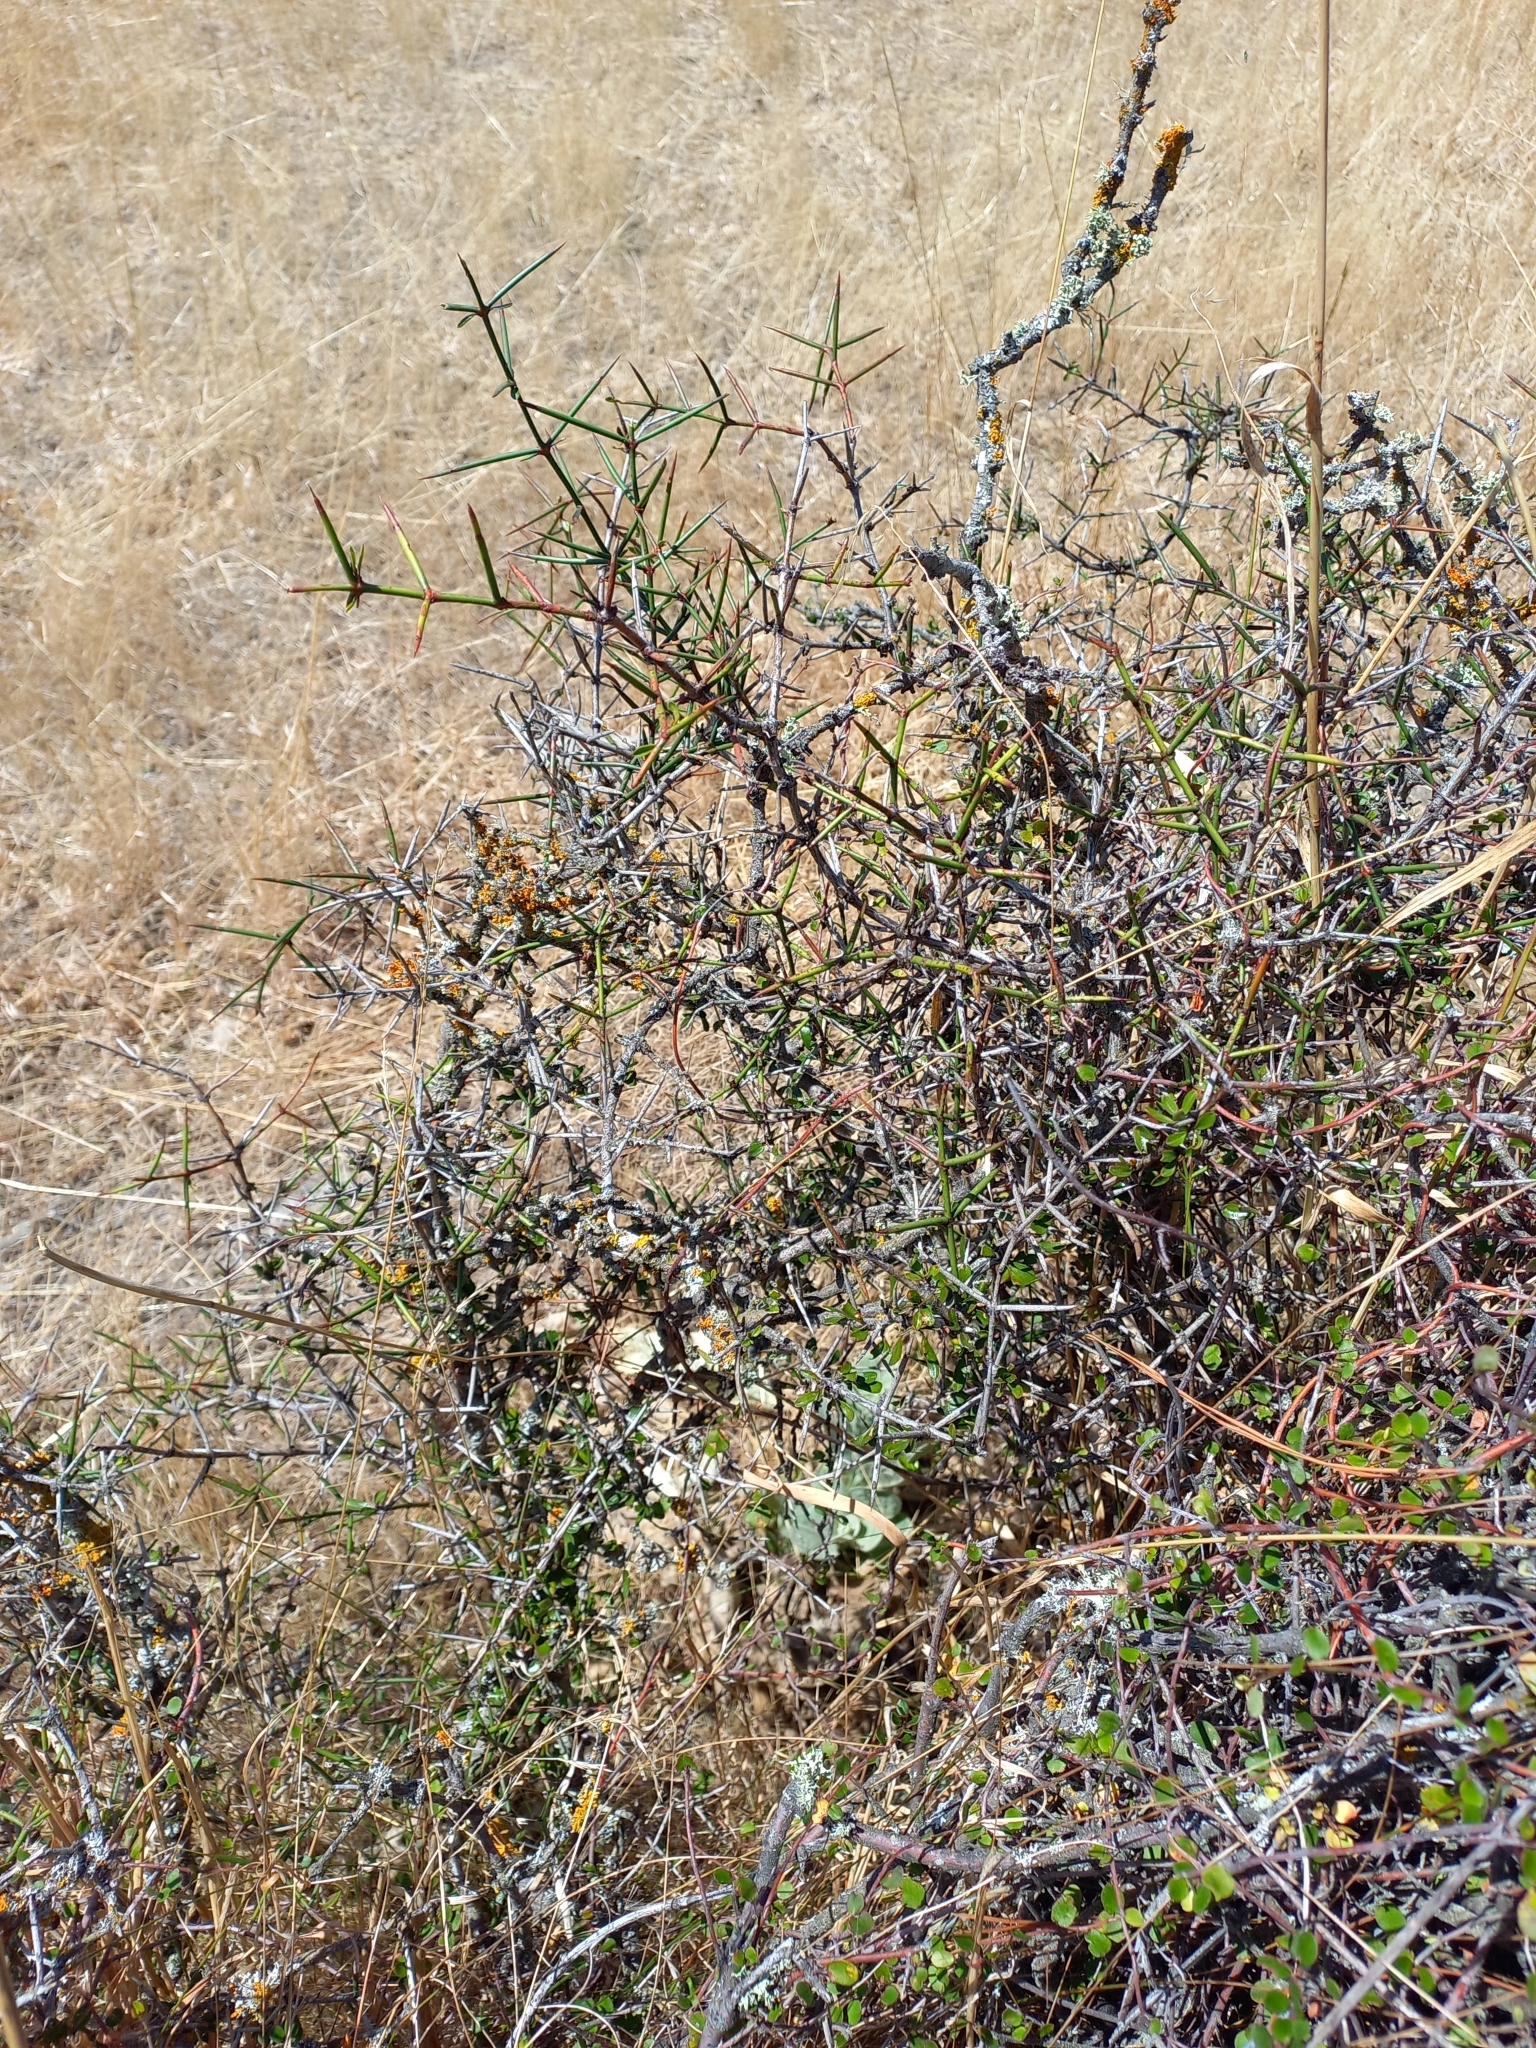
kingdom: Plantae
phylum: Tracheophyta
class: Magnoliopsida
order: Rosales
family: Rhamnaceae
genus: Discaria
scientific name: Discaria toumatou
